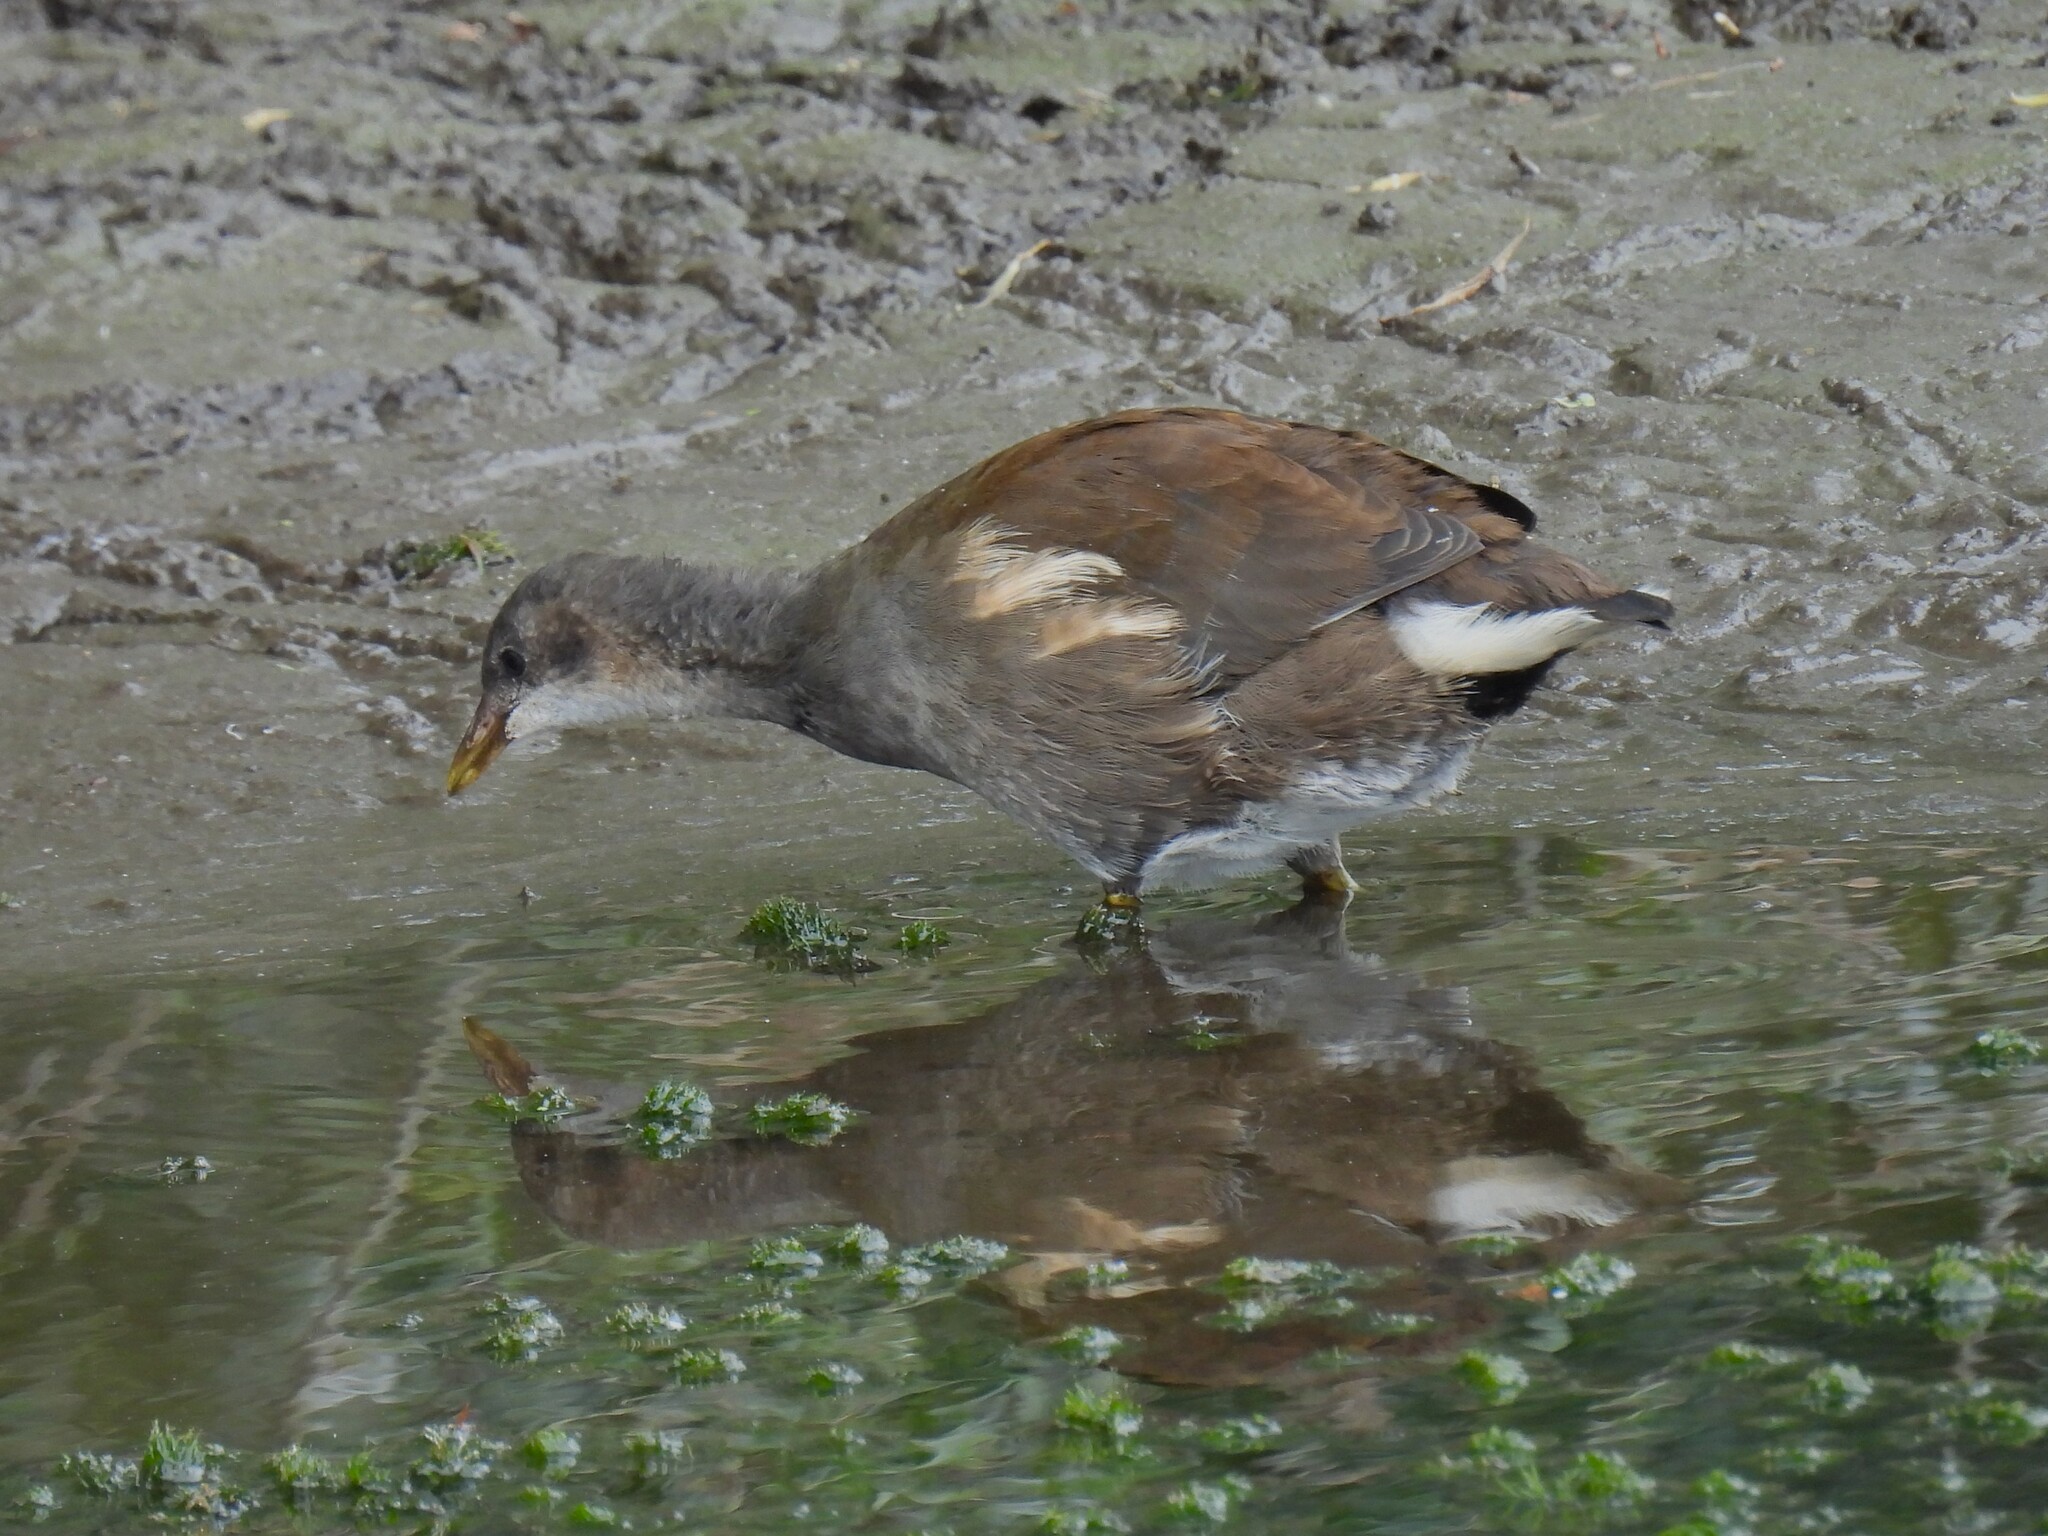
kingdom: Animalia
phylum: Chordata
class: Aves
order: Gruiformes
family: Rallidae
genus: Gallinula
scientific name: Gallinula chloropus
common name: Common moorhen
